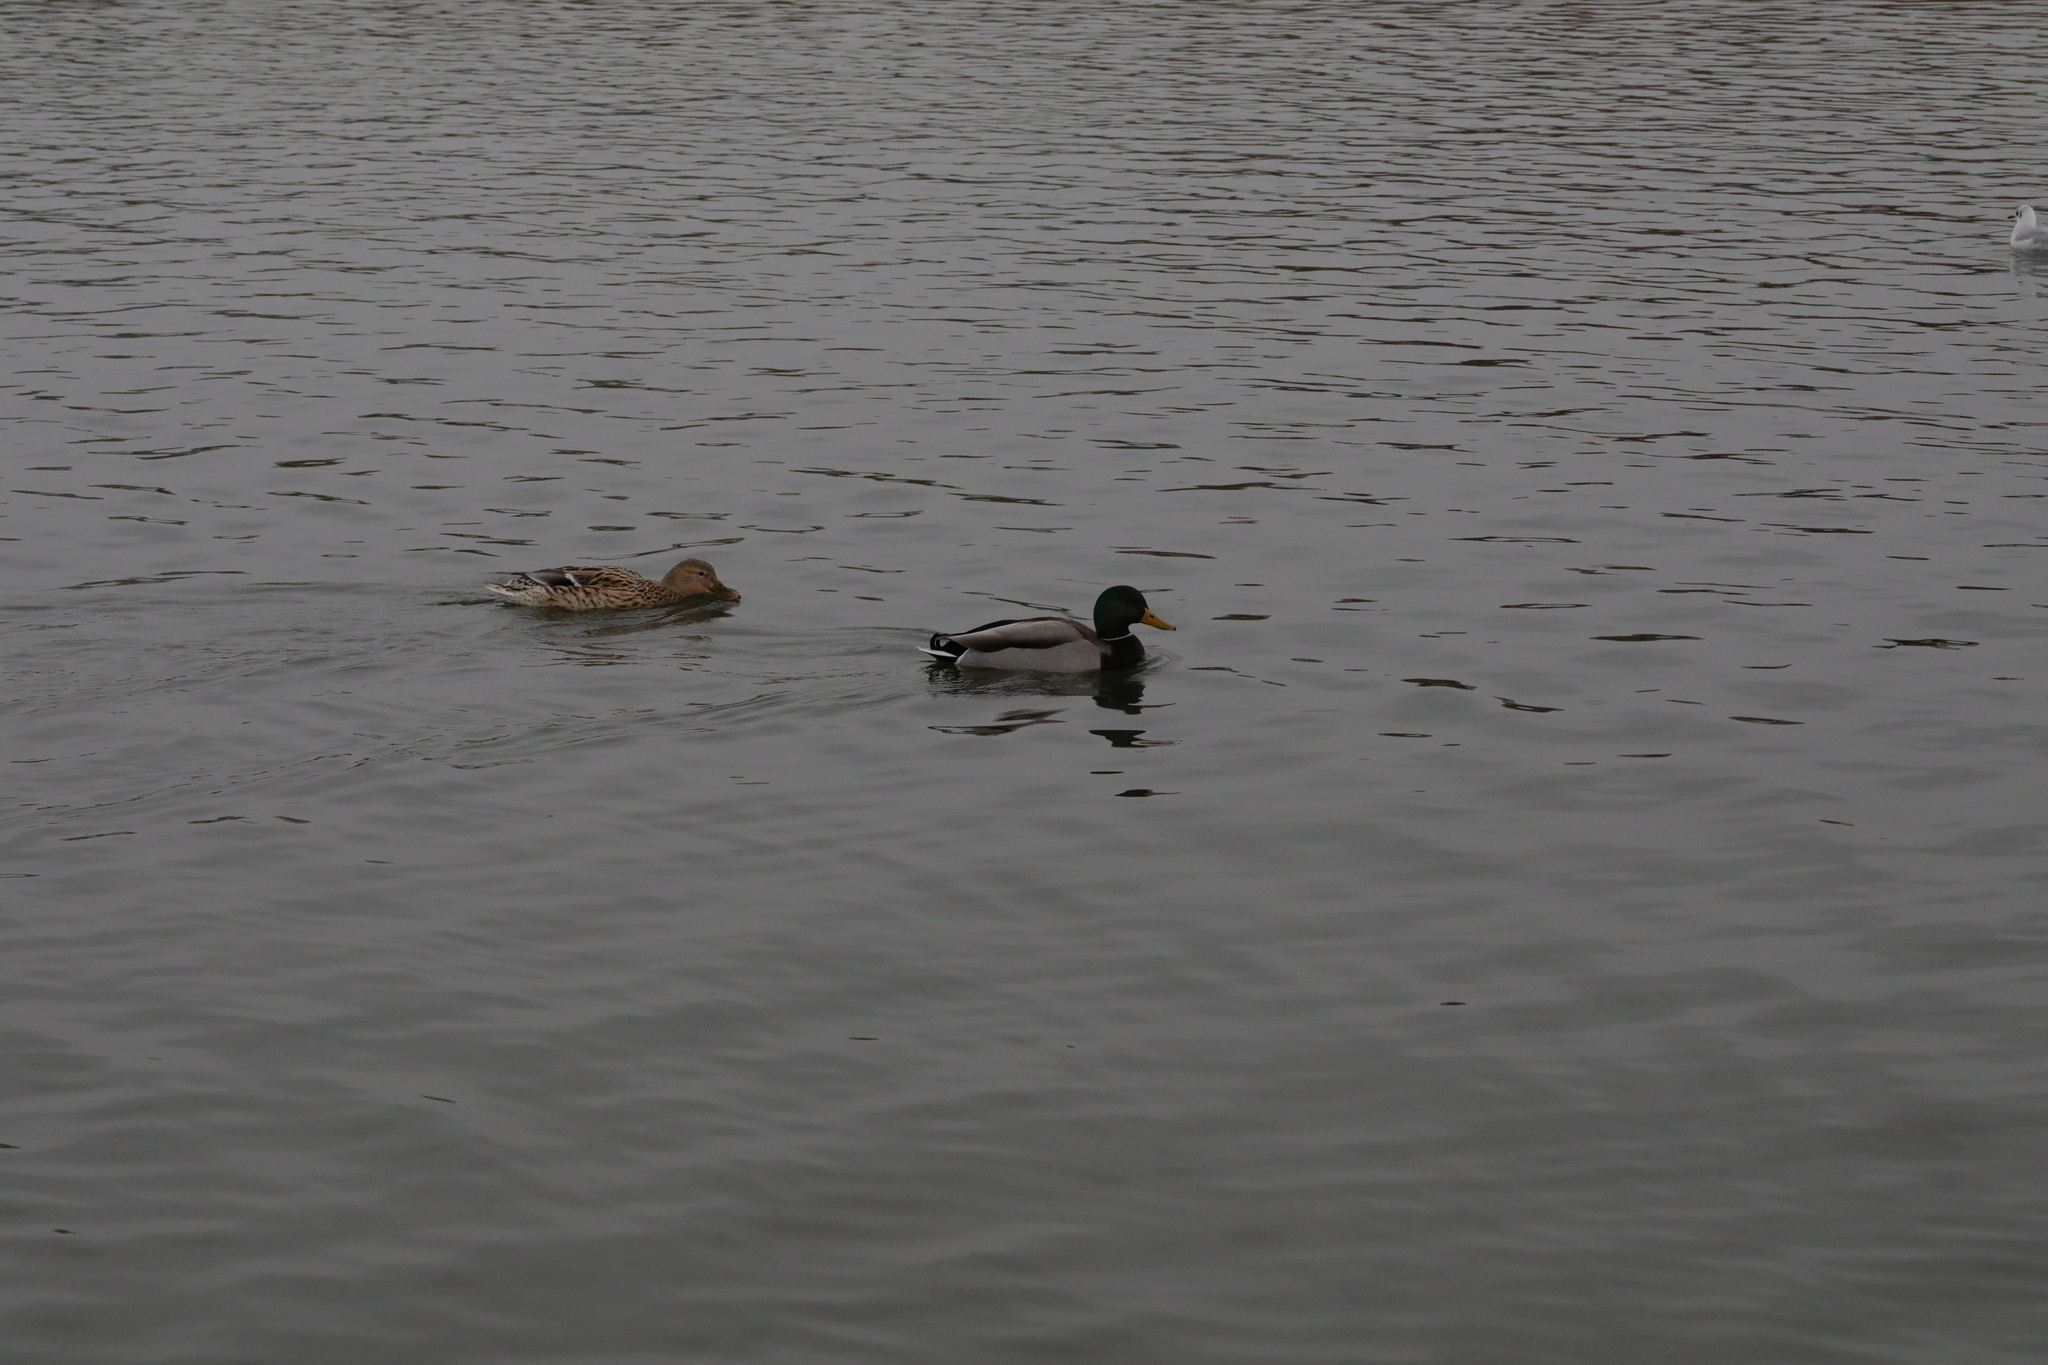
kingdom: Animalia
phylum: Chordata
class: Aves
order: Anseriformes
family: Anatidae
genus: Anas
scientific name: Anas platyrhynchos
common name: Mallard
